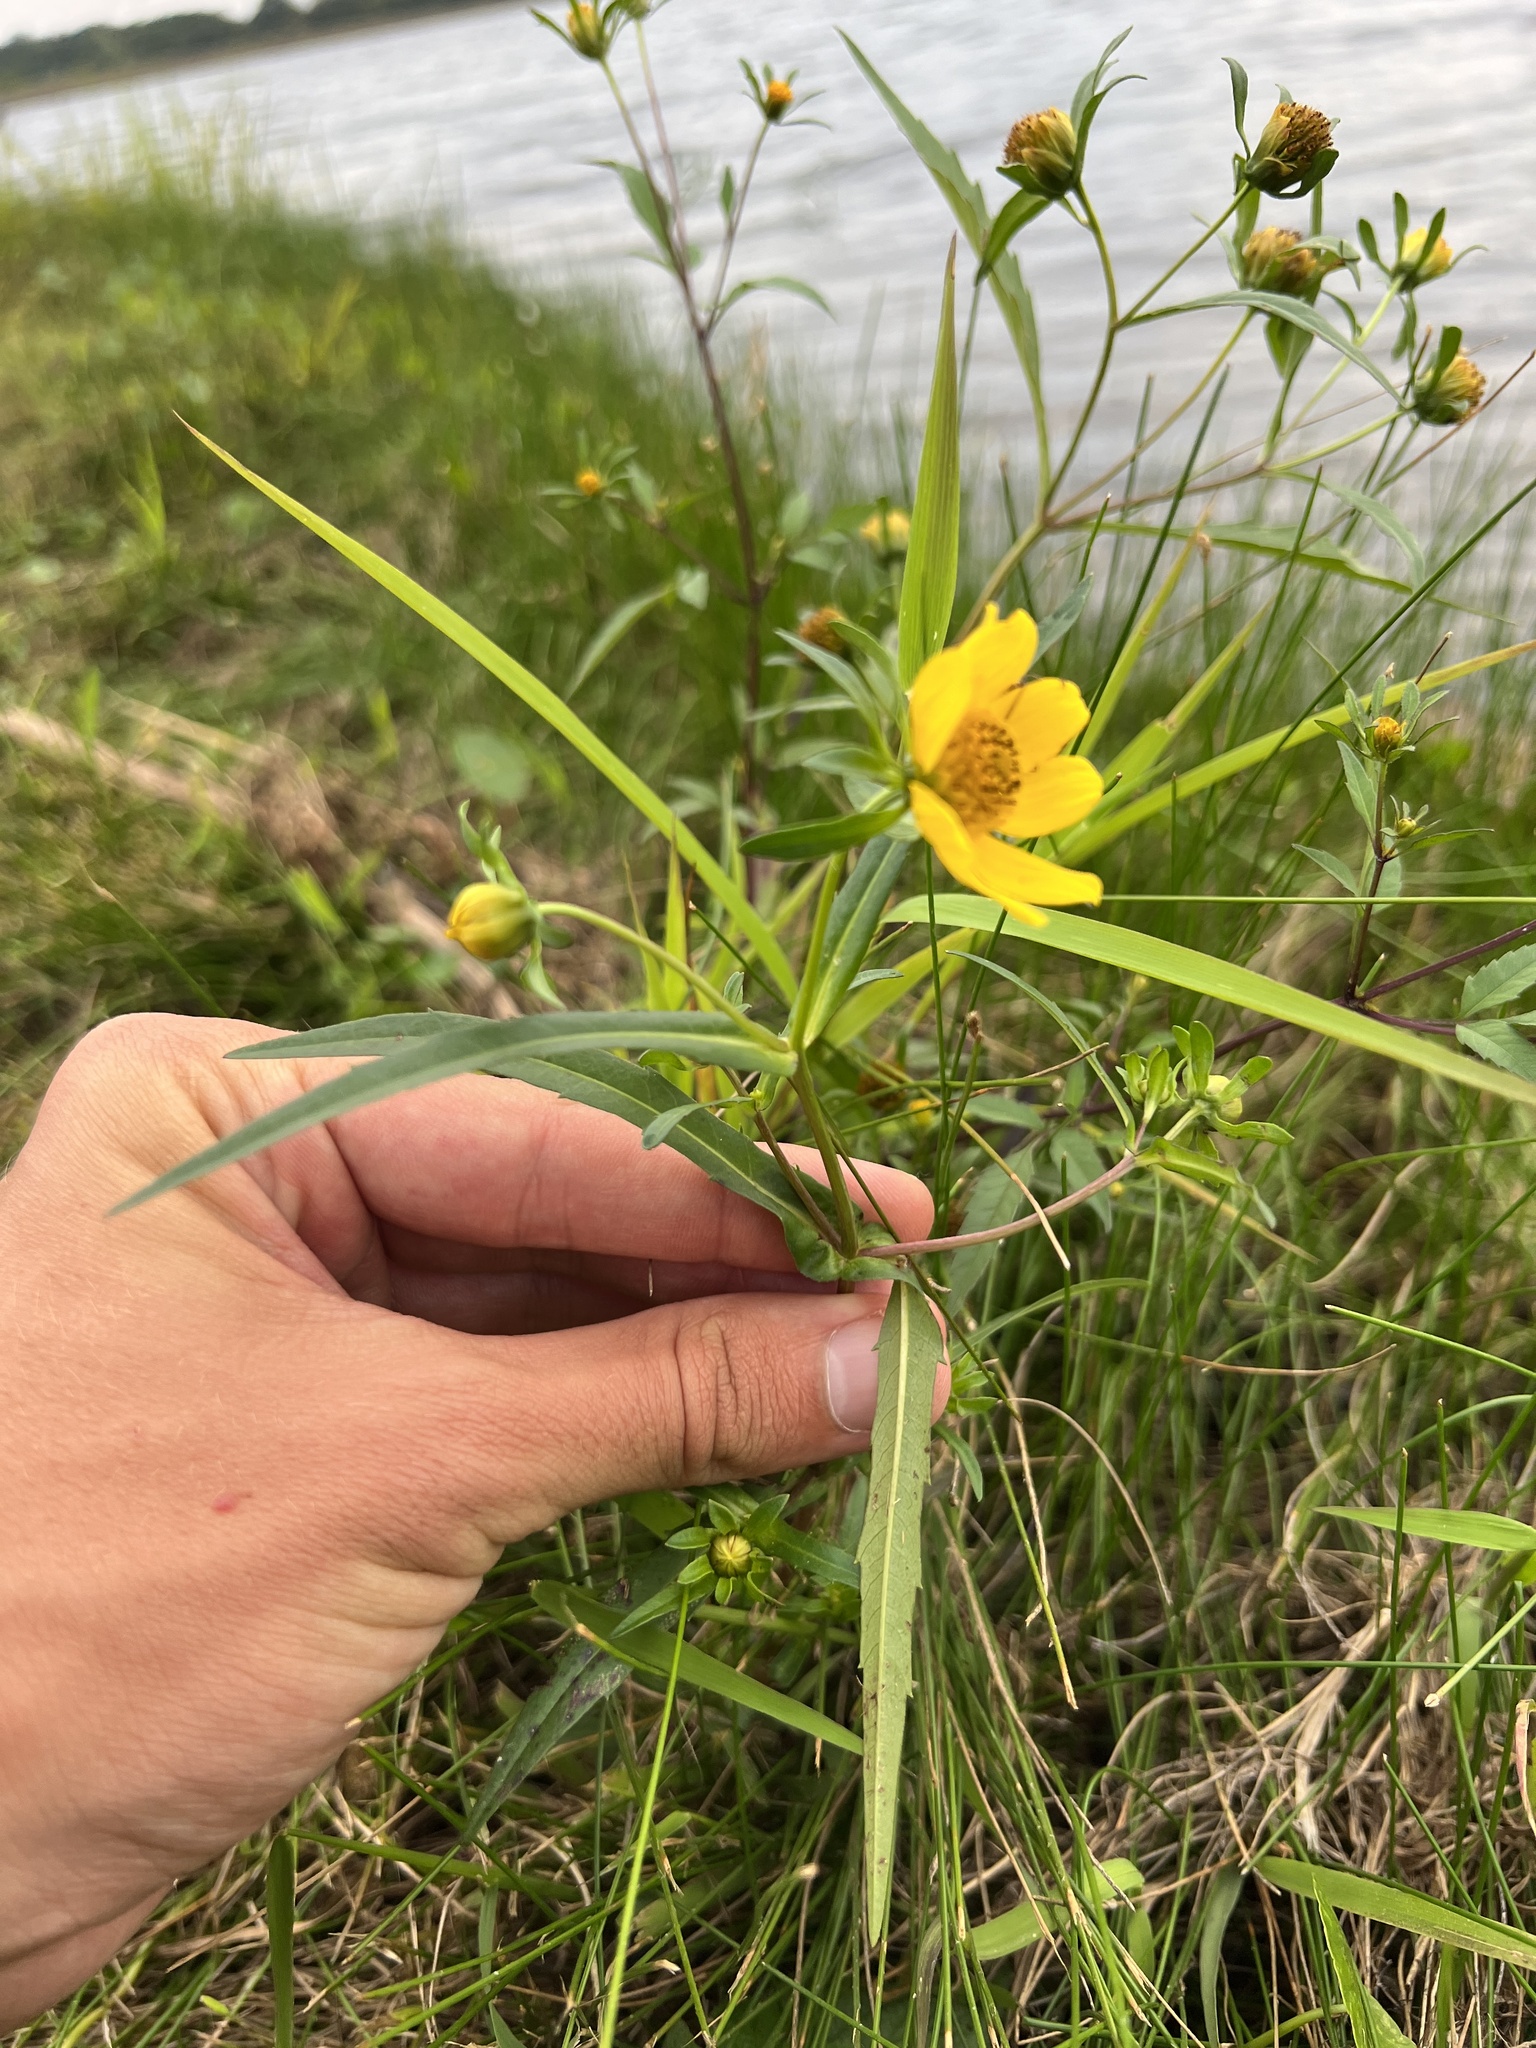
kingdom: Plantae
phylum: Tracheophyta
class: Magnoliopsida
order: Asterales
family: Asteraceae
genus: Bidens
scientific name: Bidens cernua
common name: Nodding bur-marigold
